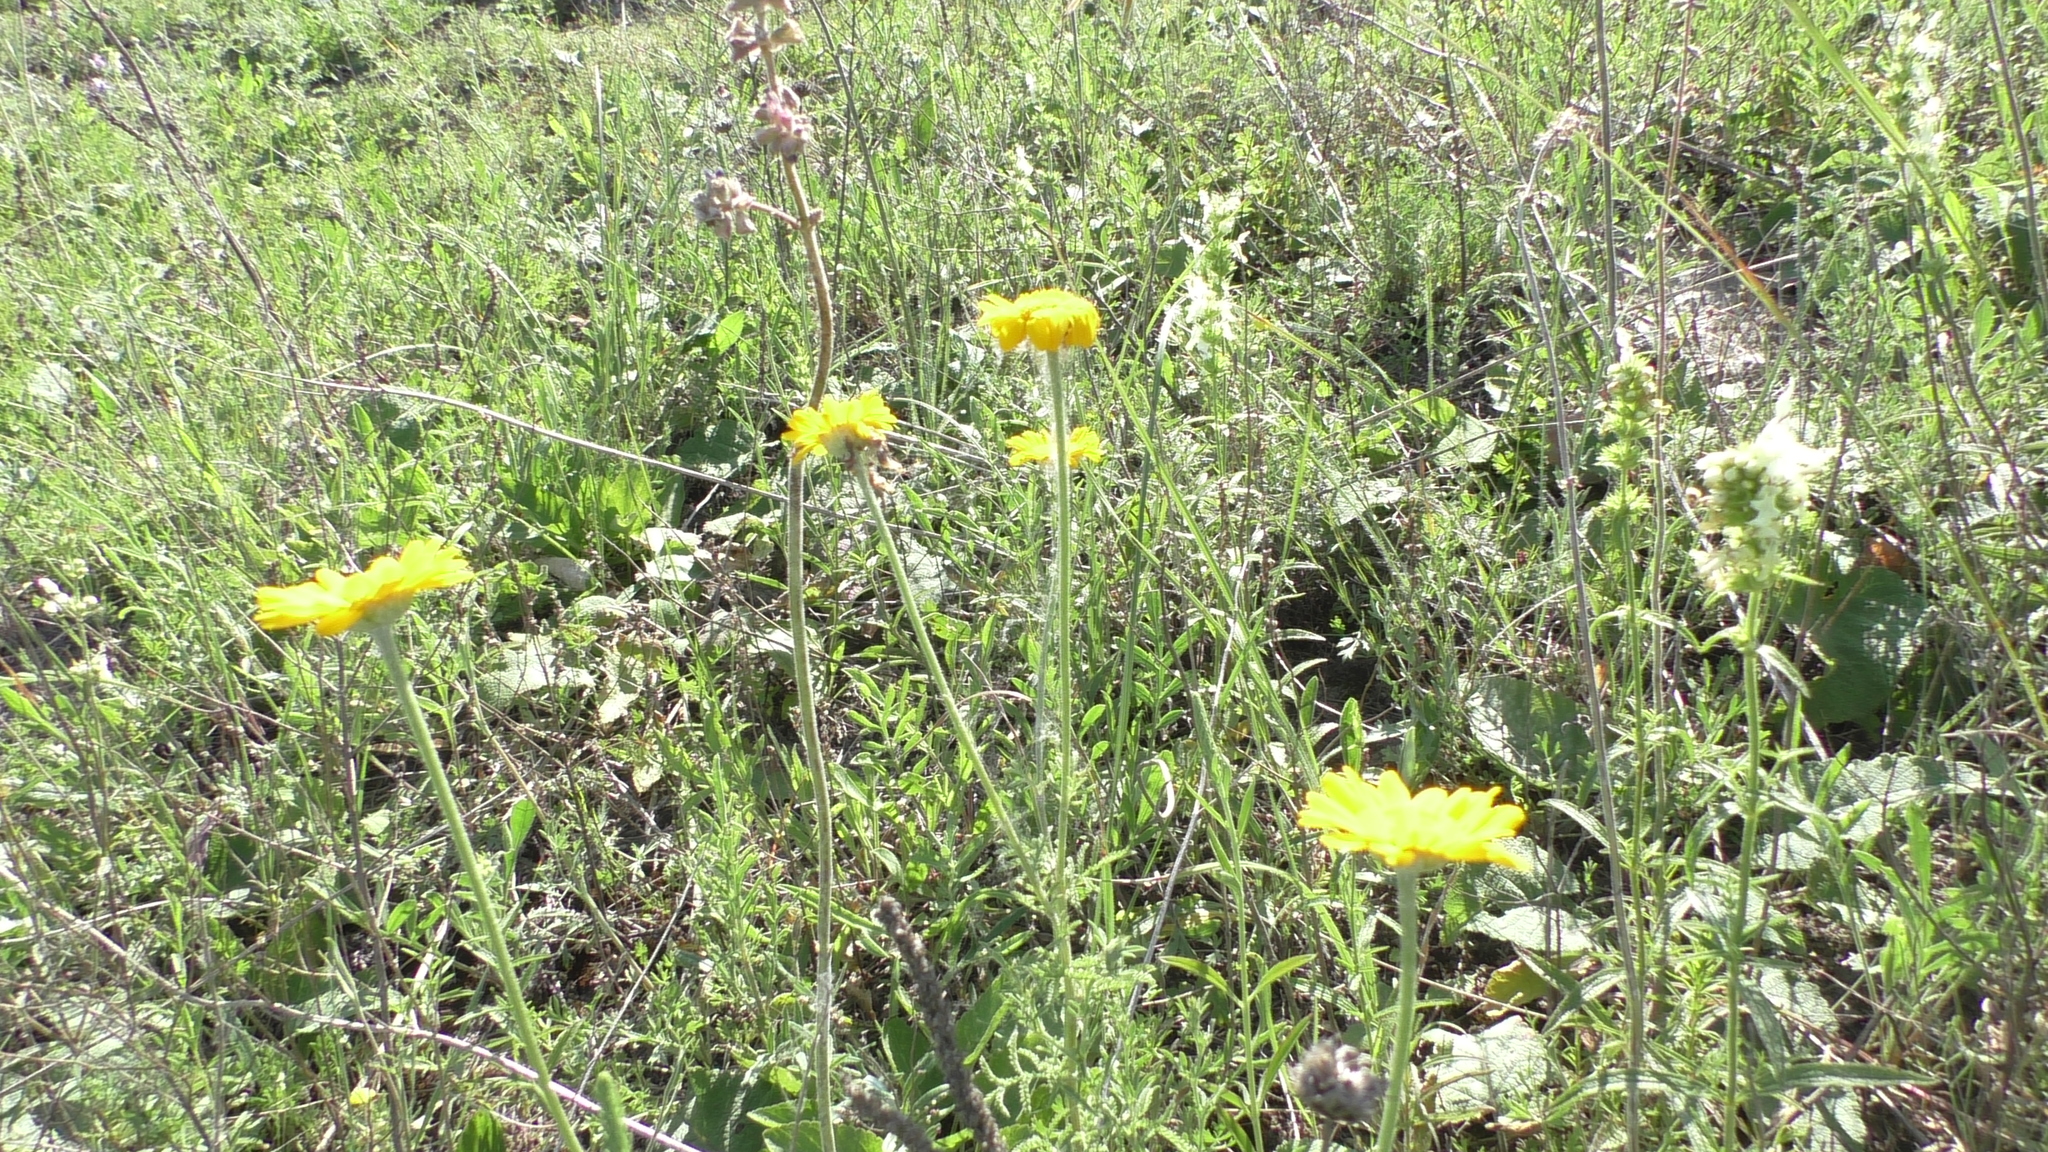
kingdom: Plantae
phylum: Tracheophyta
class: Magnoliopsida
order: Asterales
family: Asteraceae
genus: Cota
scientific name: Cota tinctoria
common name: Golden chamomile
